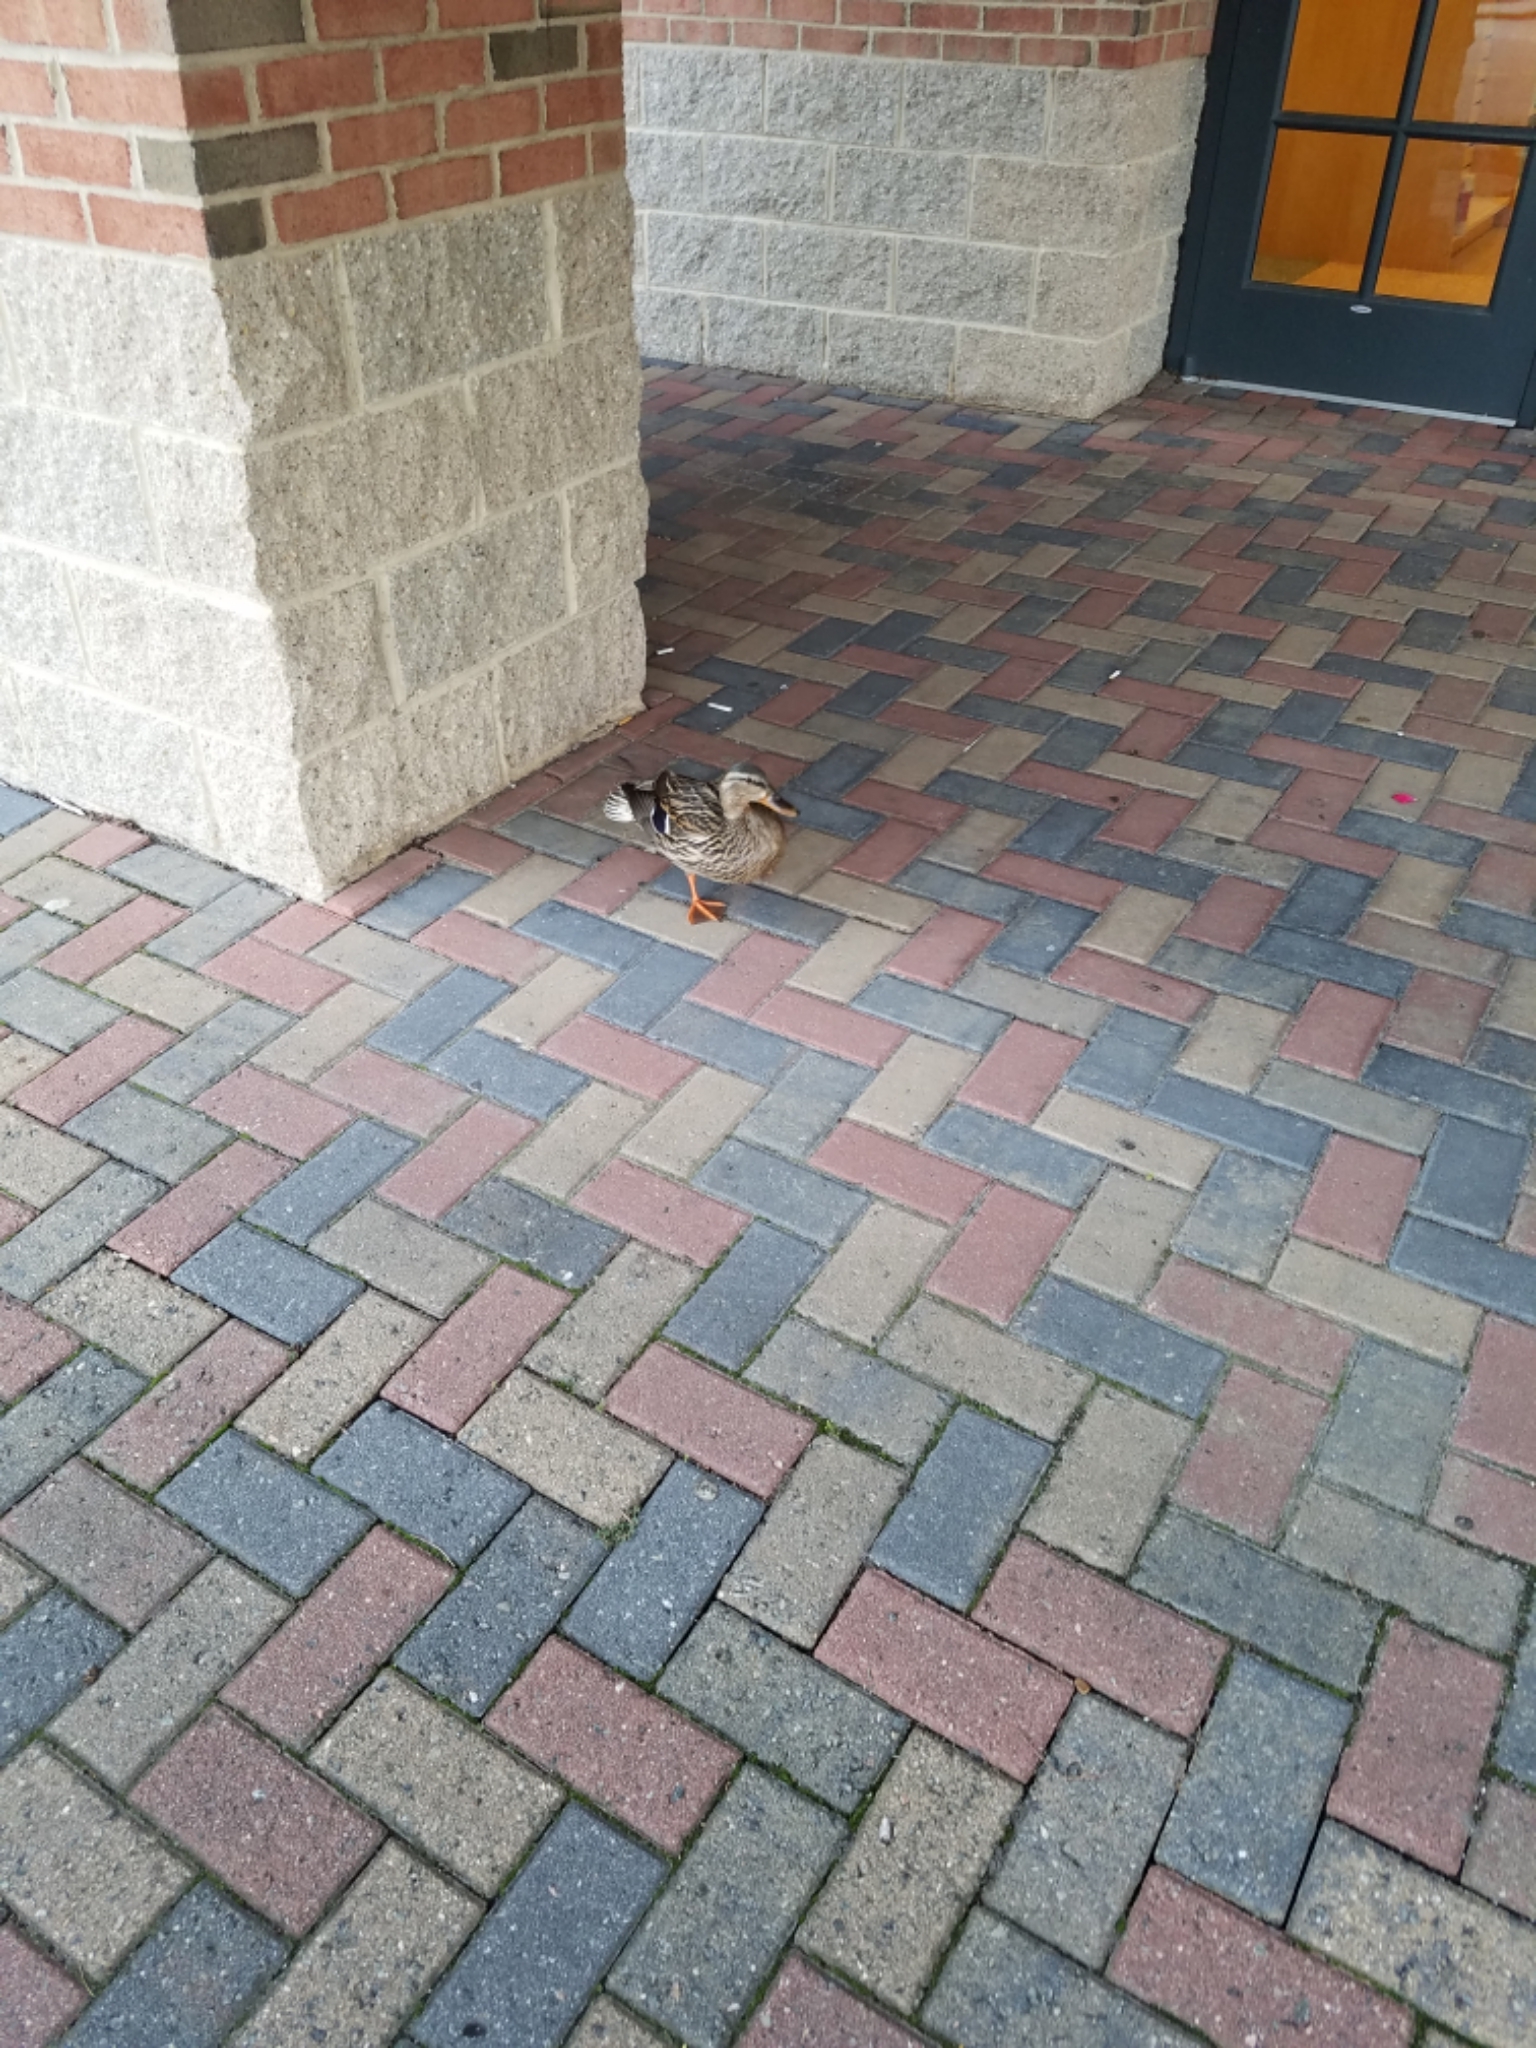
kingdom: Animalia
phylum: Chordata
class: Aves
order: Anseriformes
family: Anatidae
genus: Anas
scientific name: Anas platyrhynchos
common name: Mallard
